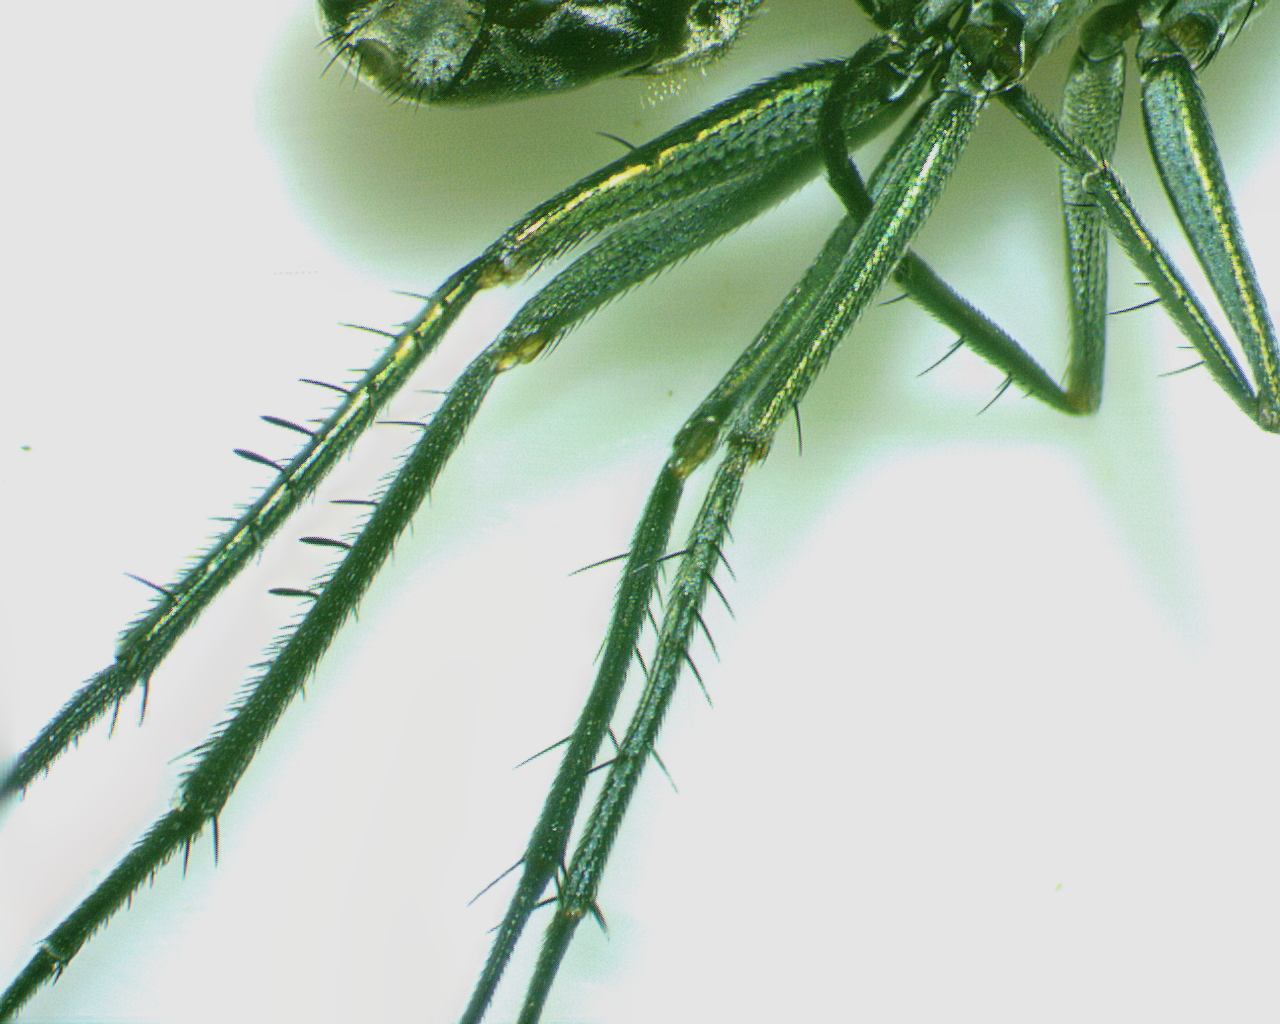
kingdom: Animalia
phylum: Arthropoda
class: Insecta
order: Diptera
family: Dolichopodidae
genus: Tachytrechus
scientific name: Tachytrechus angustipennis
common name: Long-legged fly
